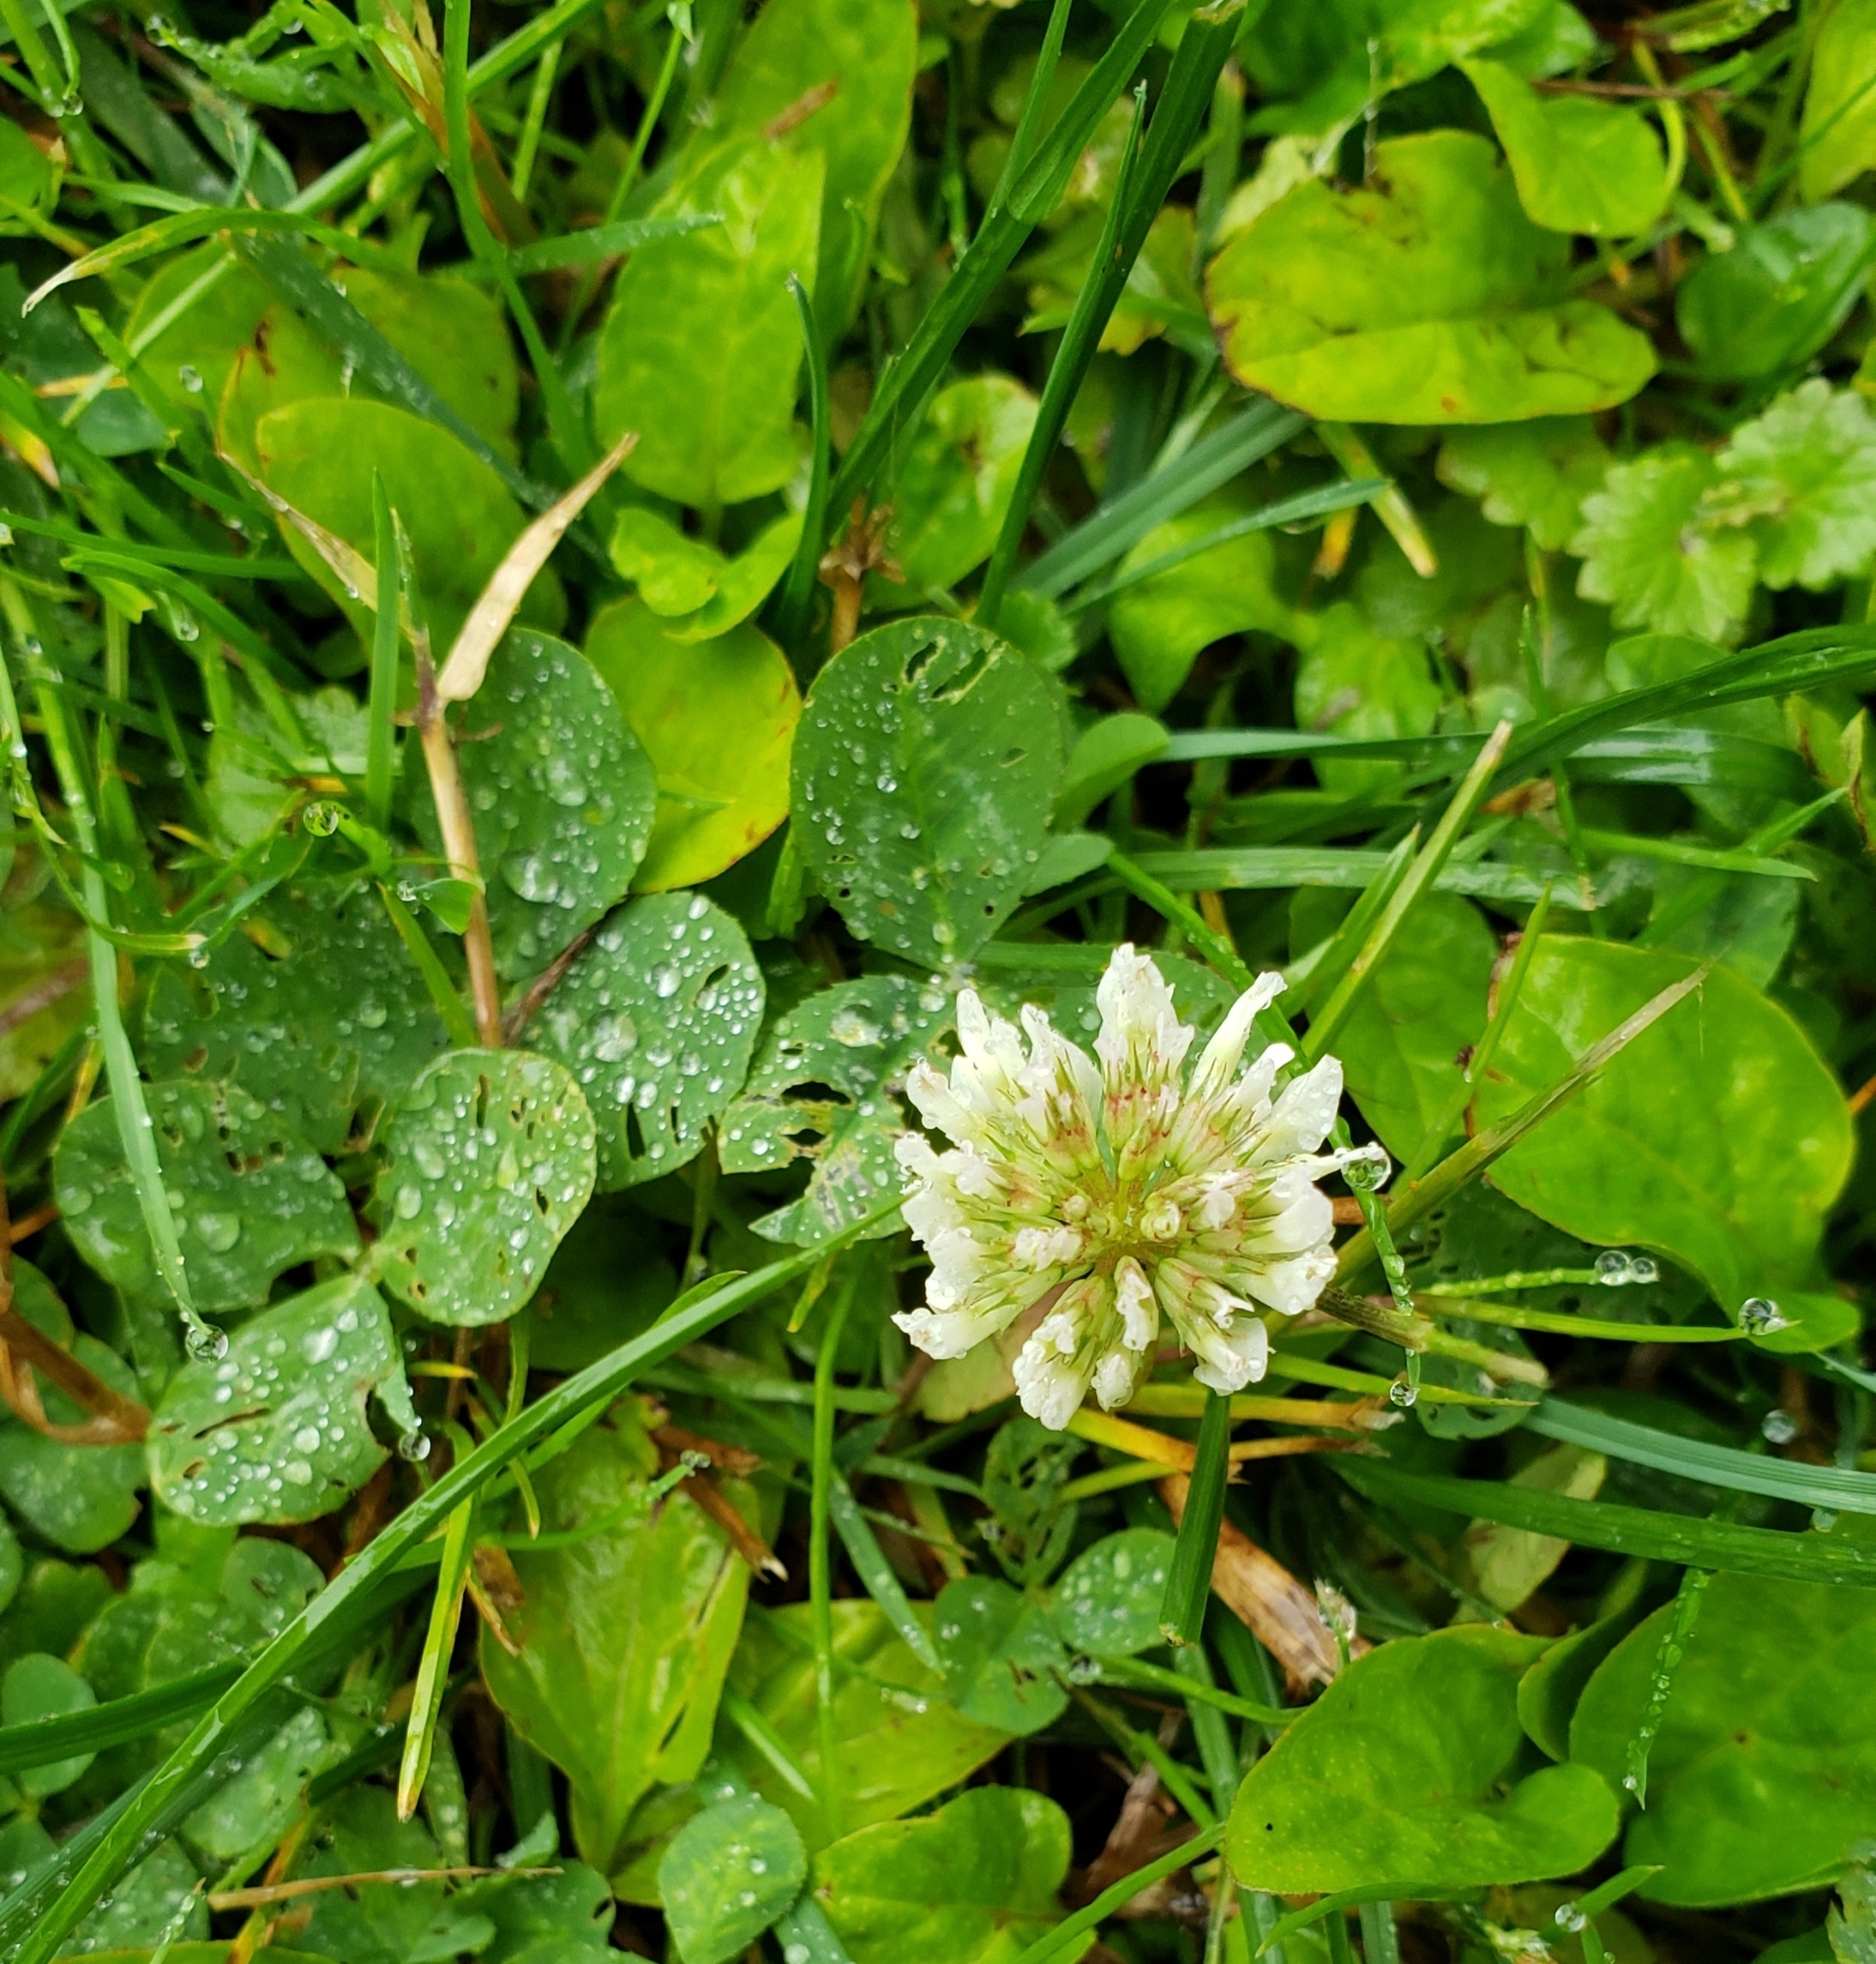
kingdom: Plantae
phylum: Tracheophyta
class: Magnoliopsida
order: Fabales
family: Fabaceae
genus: Trifolium
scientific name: Trifolium repens
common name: White clover
